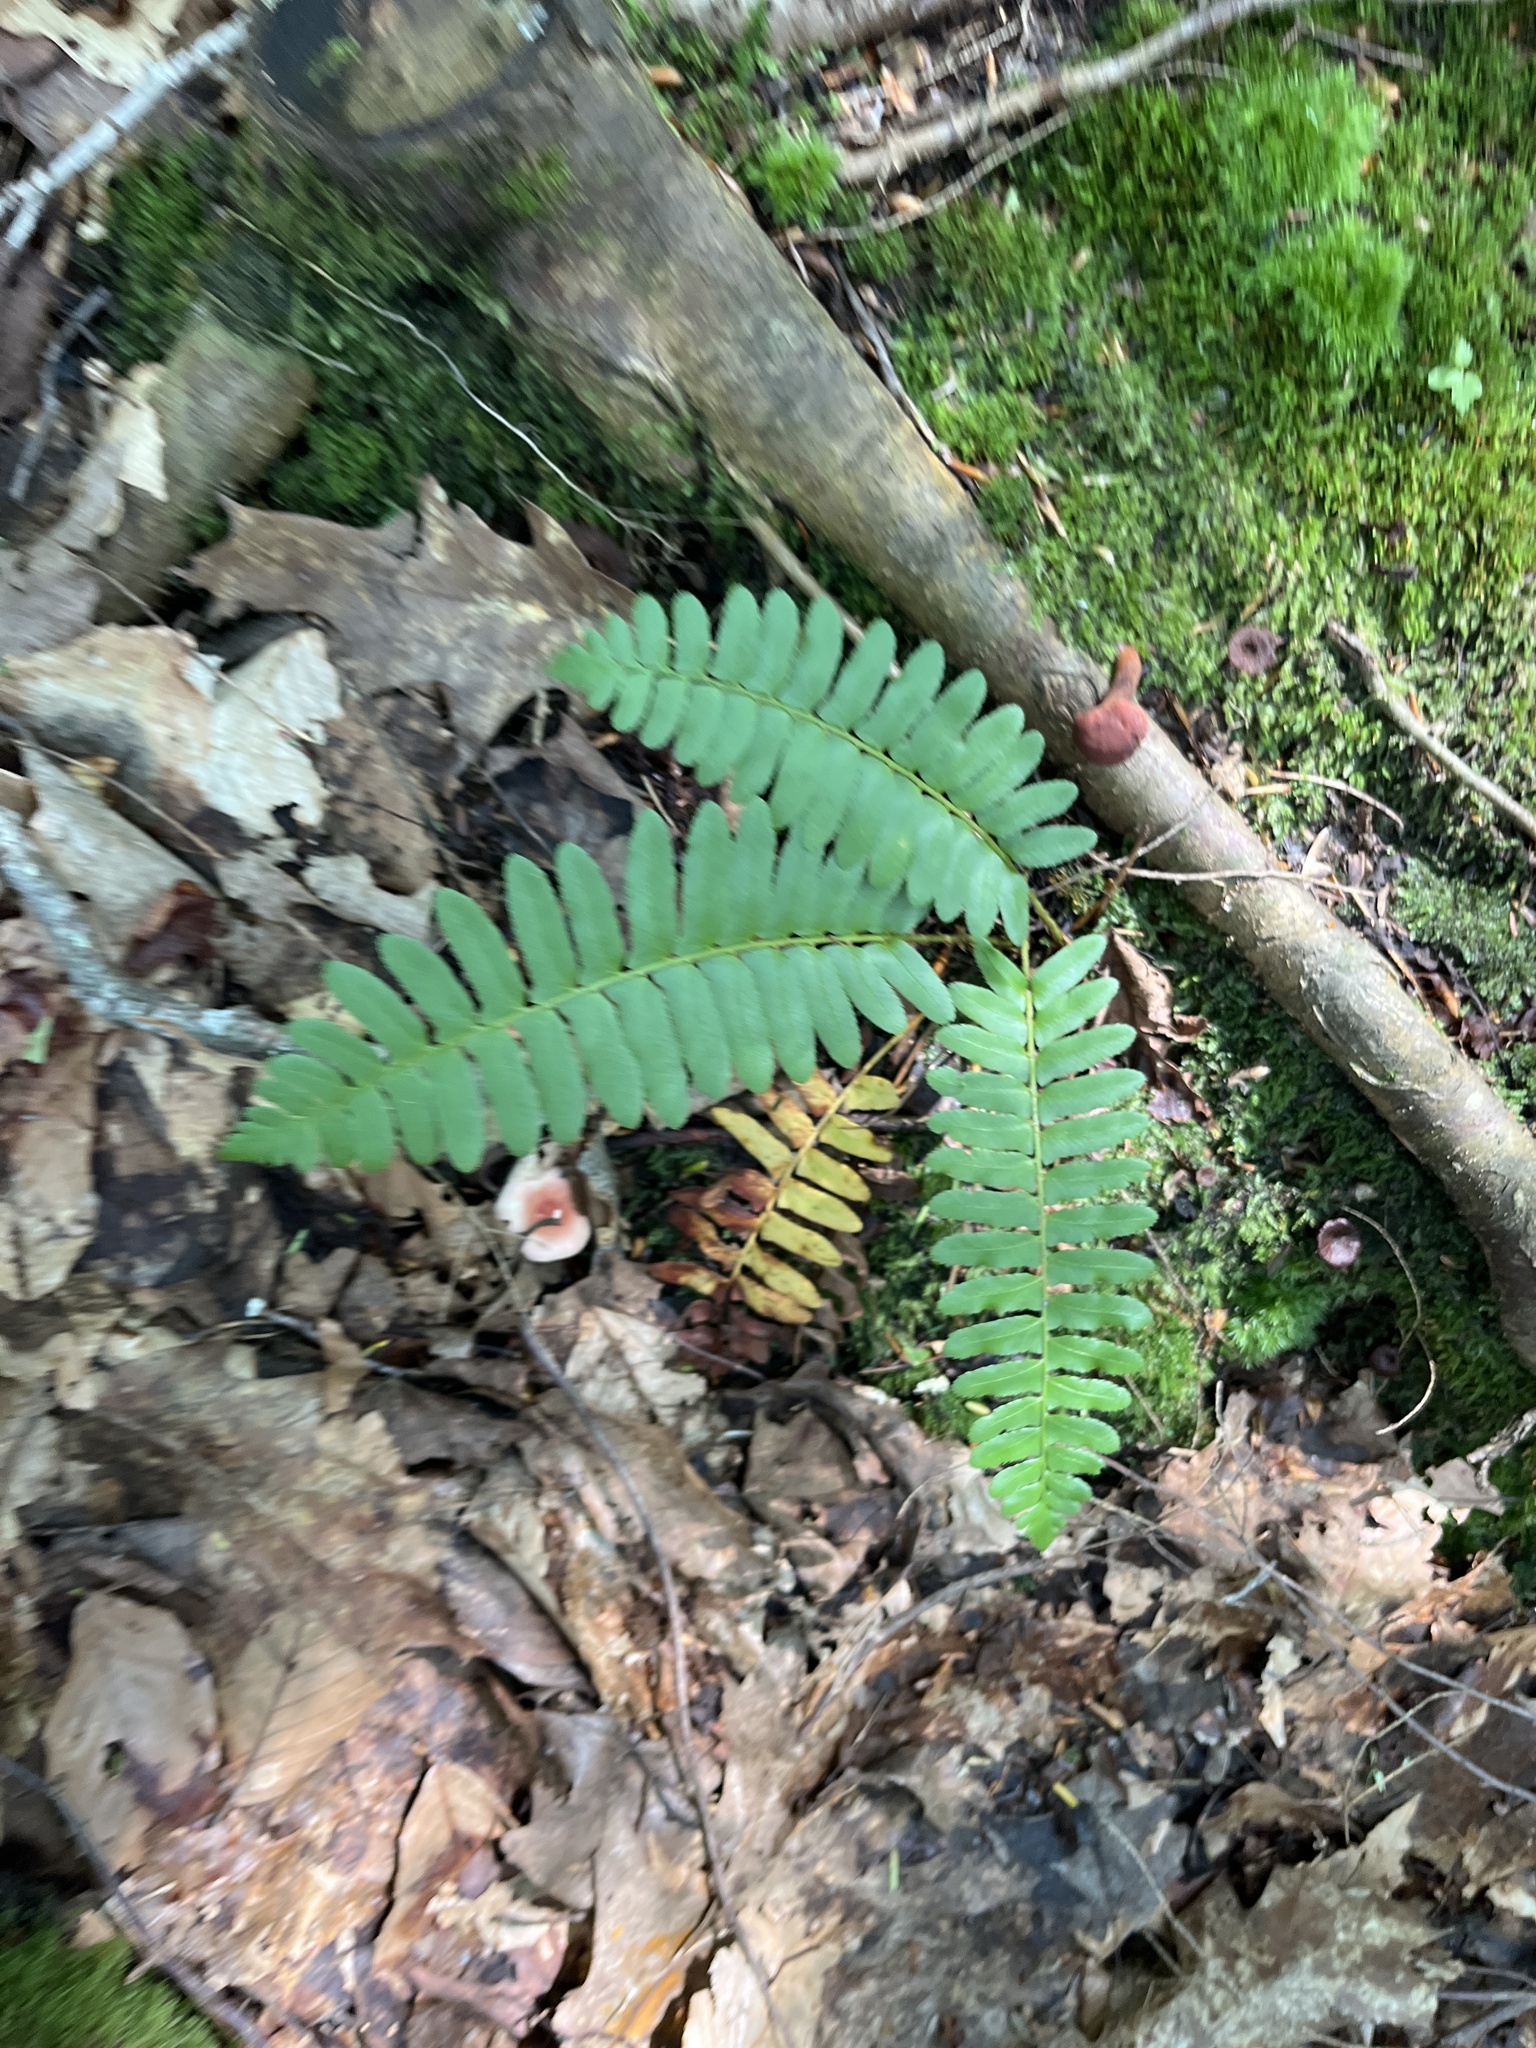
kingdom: Plantae
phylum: Tracheophyta
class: Polypodiopsida
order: Polypodiales
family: Dryopteridaceae
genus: Polystichum
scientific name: Polystichum acrostichoides
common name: Christmas fern
